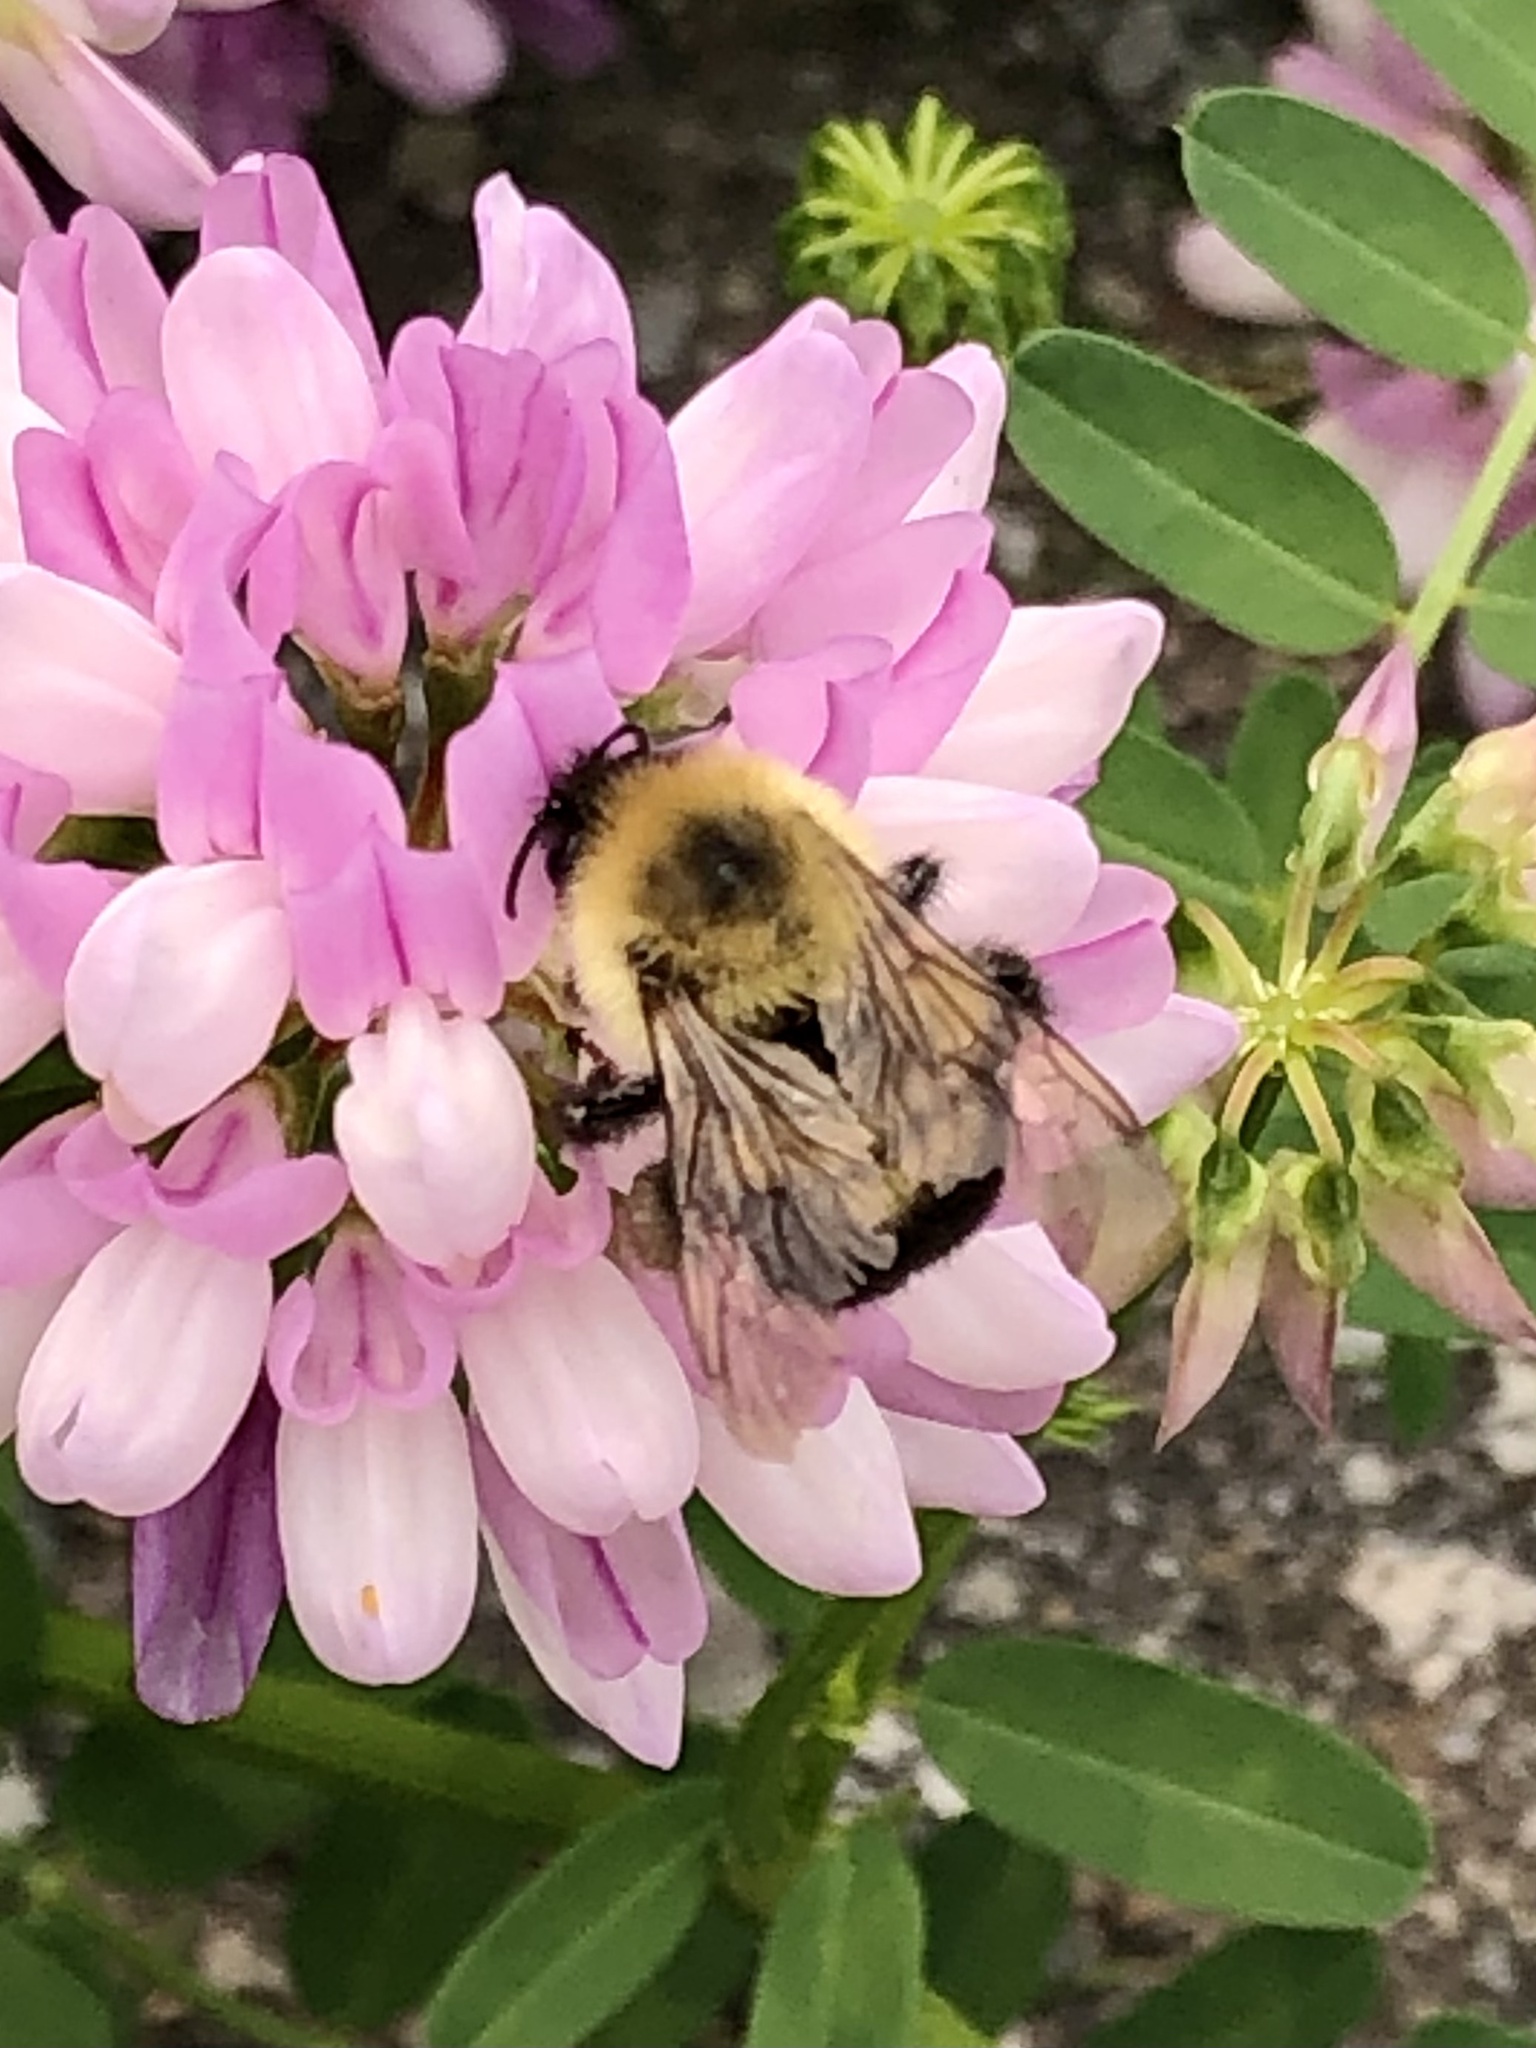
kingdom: Animalia
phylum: Arthropoda
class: Insecta
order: Hymenoptera
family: Apidae
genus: Bombus
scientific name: Bombus bimaculatus
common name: Two-spotted bumble bee
